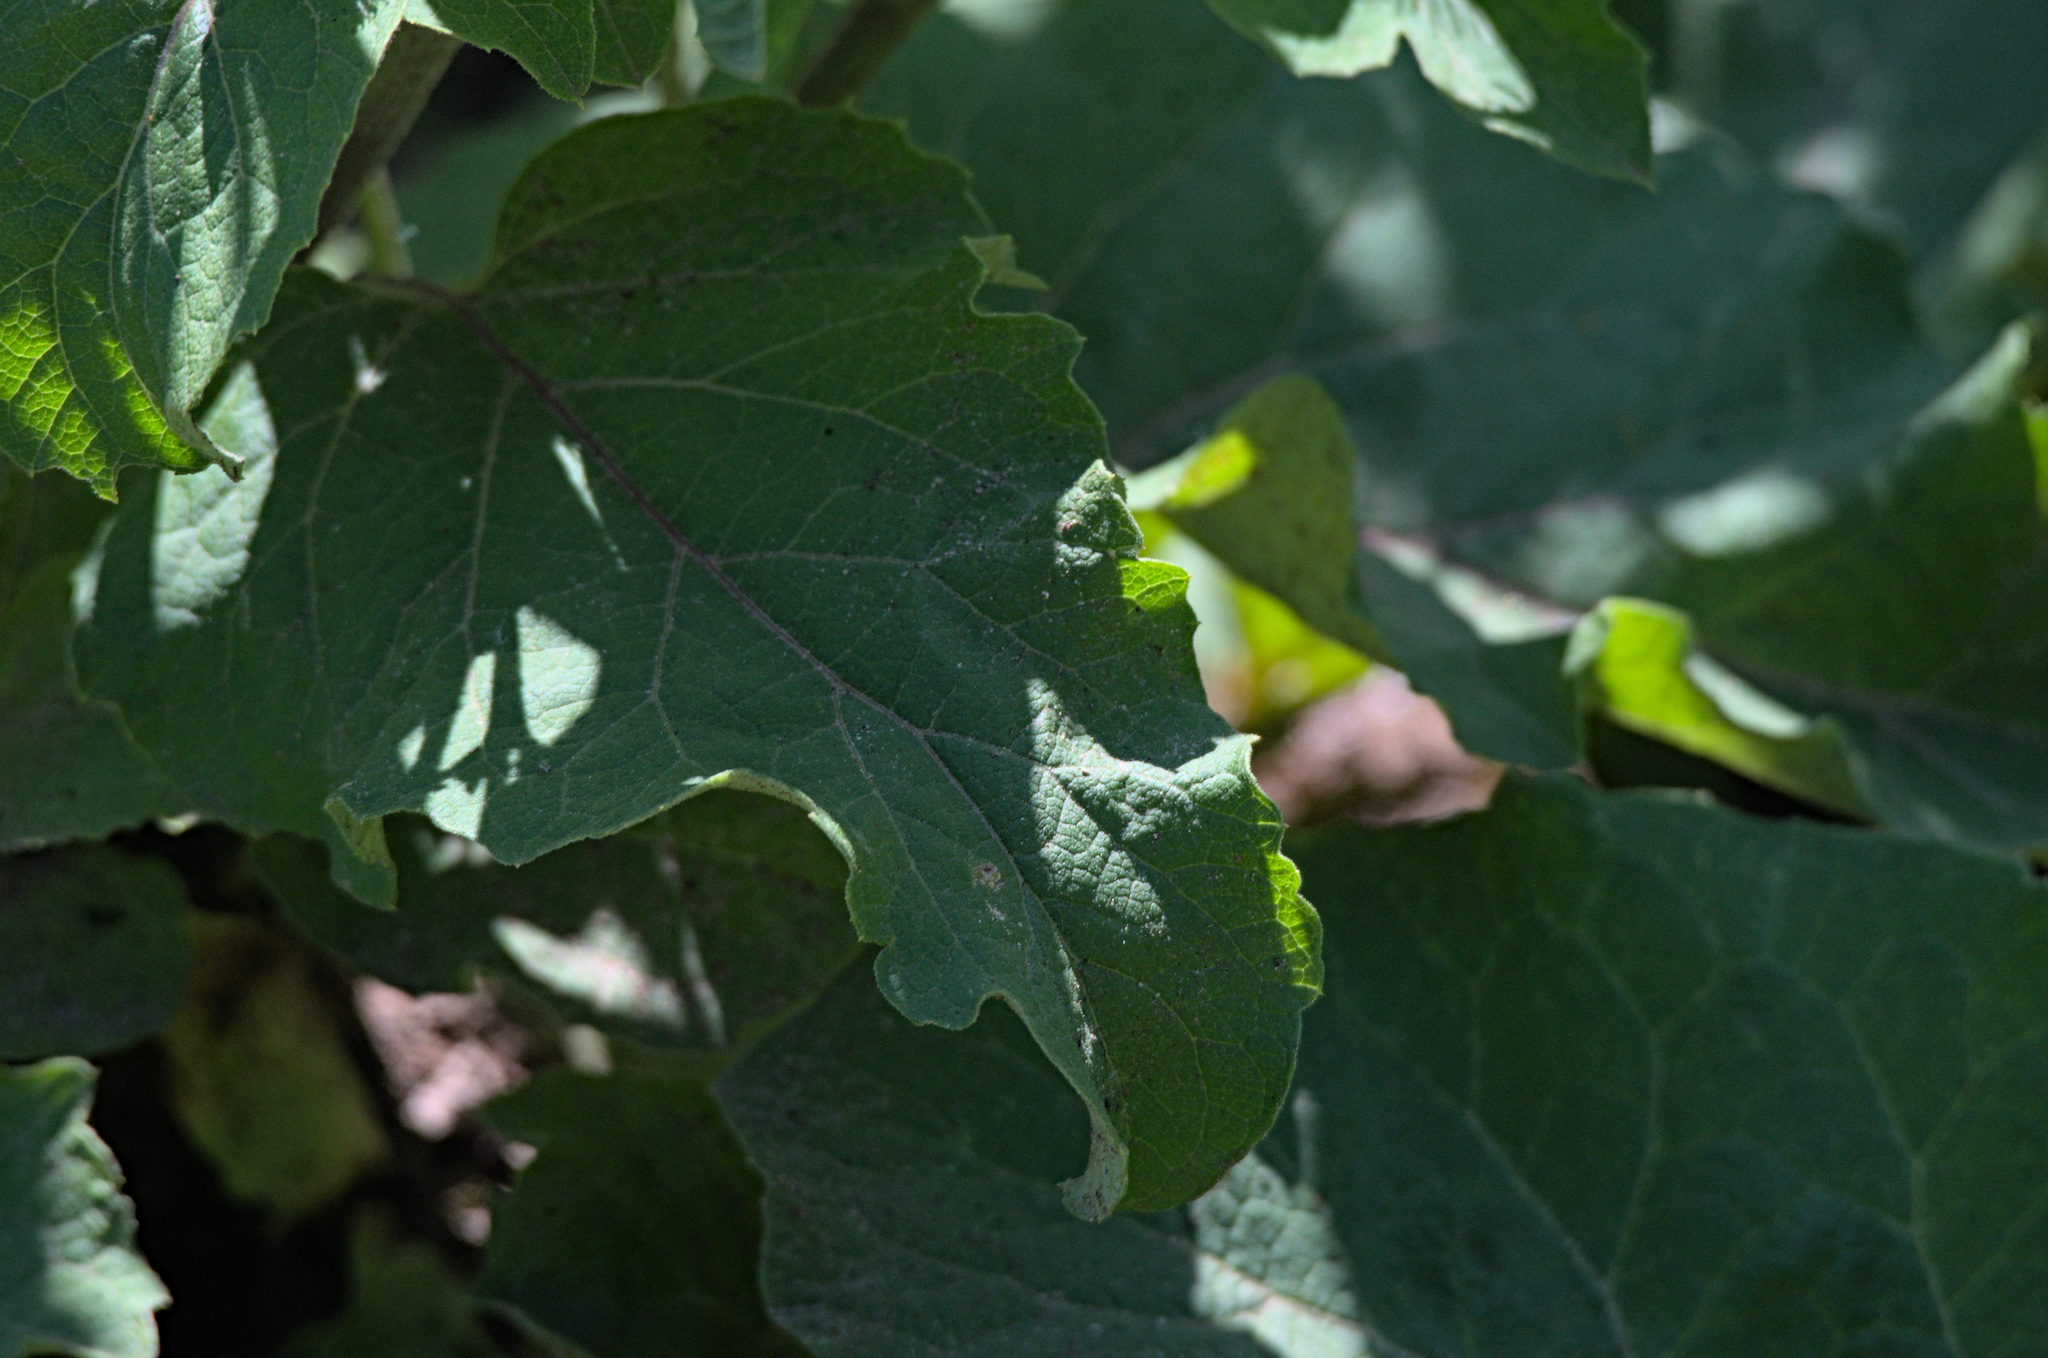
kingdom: Plantae
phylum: Tracheophyta
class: Magnoliopsida
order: Asterales
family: Asteraceae
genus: Arctium
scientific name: Arctium minus
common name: Lesser burdock
